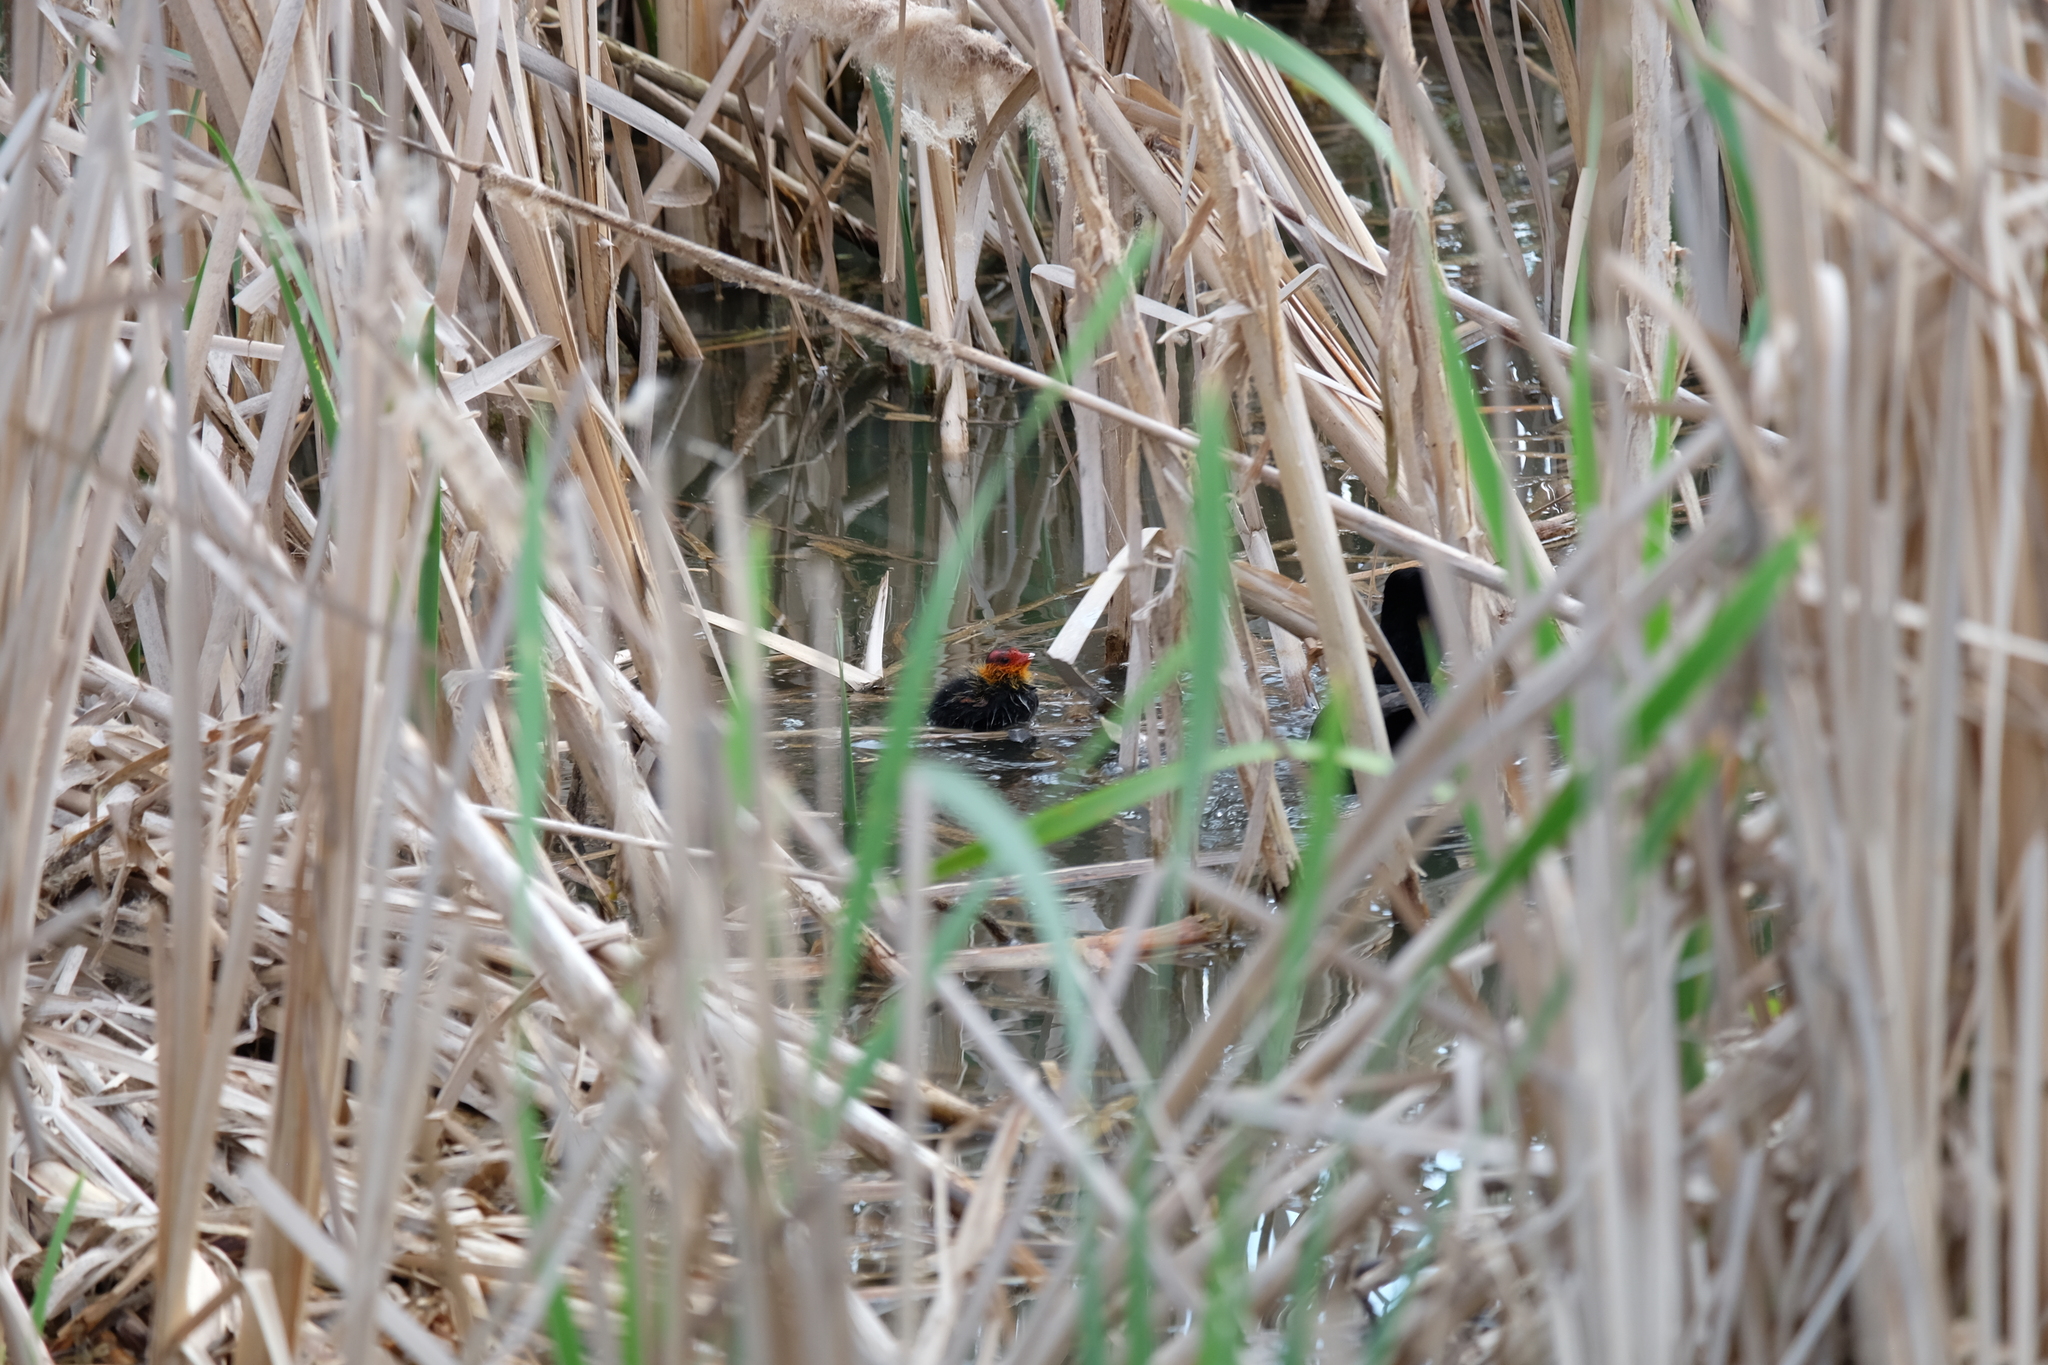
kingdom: Animalia
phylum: Chordata
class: Aves
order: Gruiformes
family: Rallidae
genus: Fulica
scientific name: Fulica atra
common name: Eurasian coot
